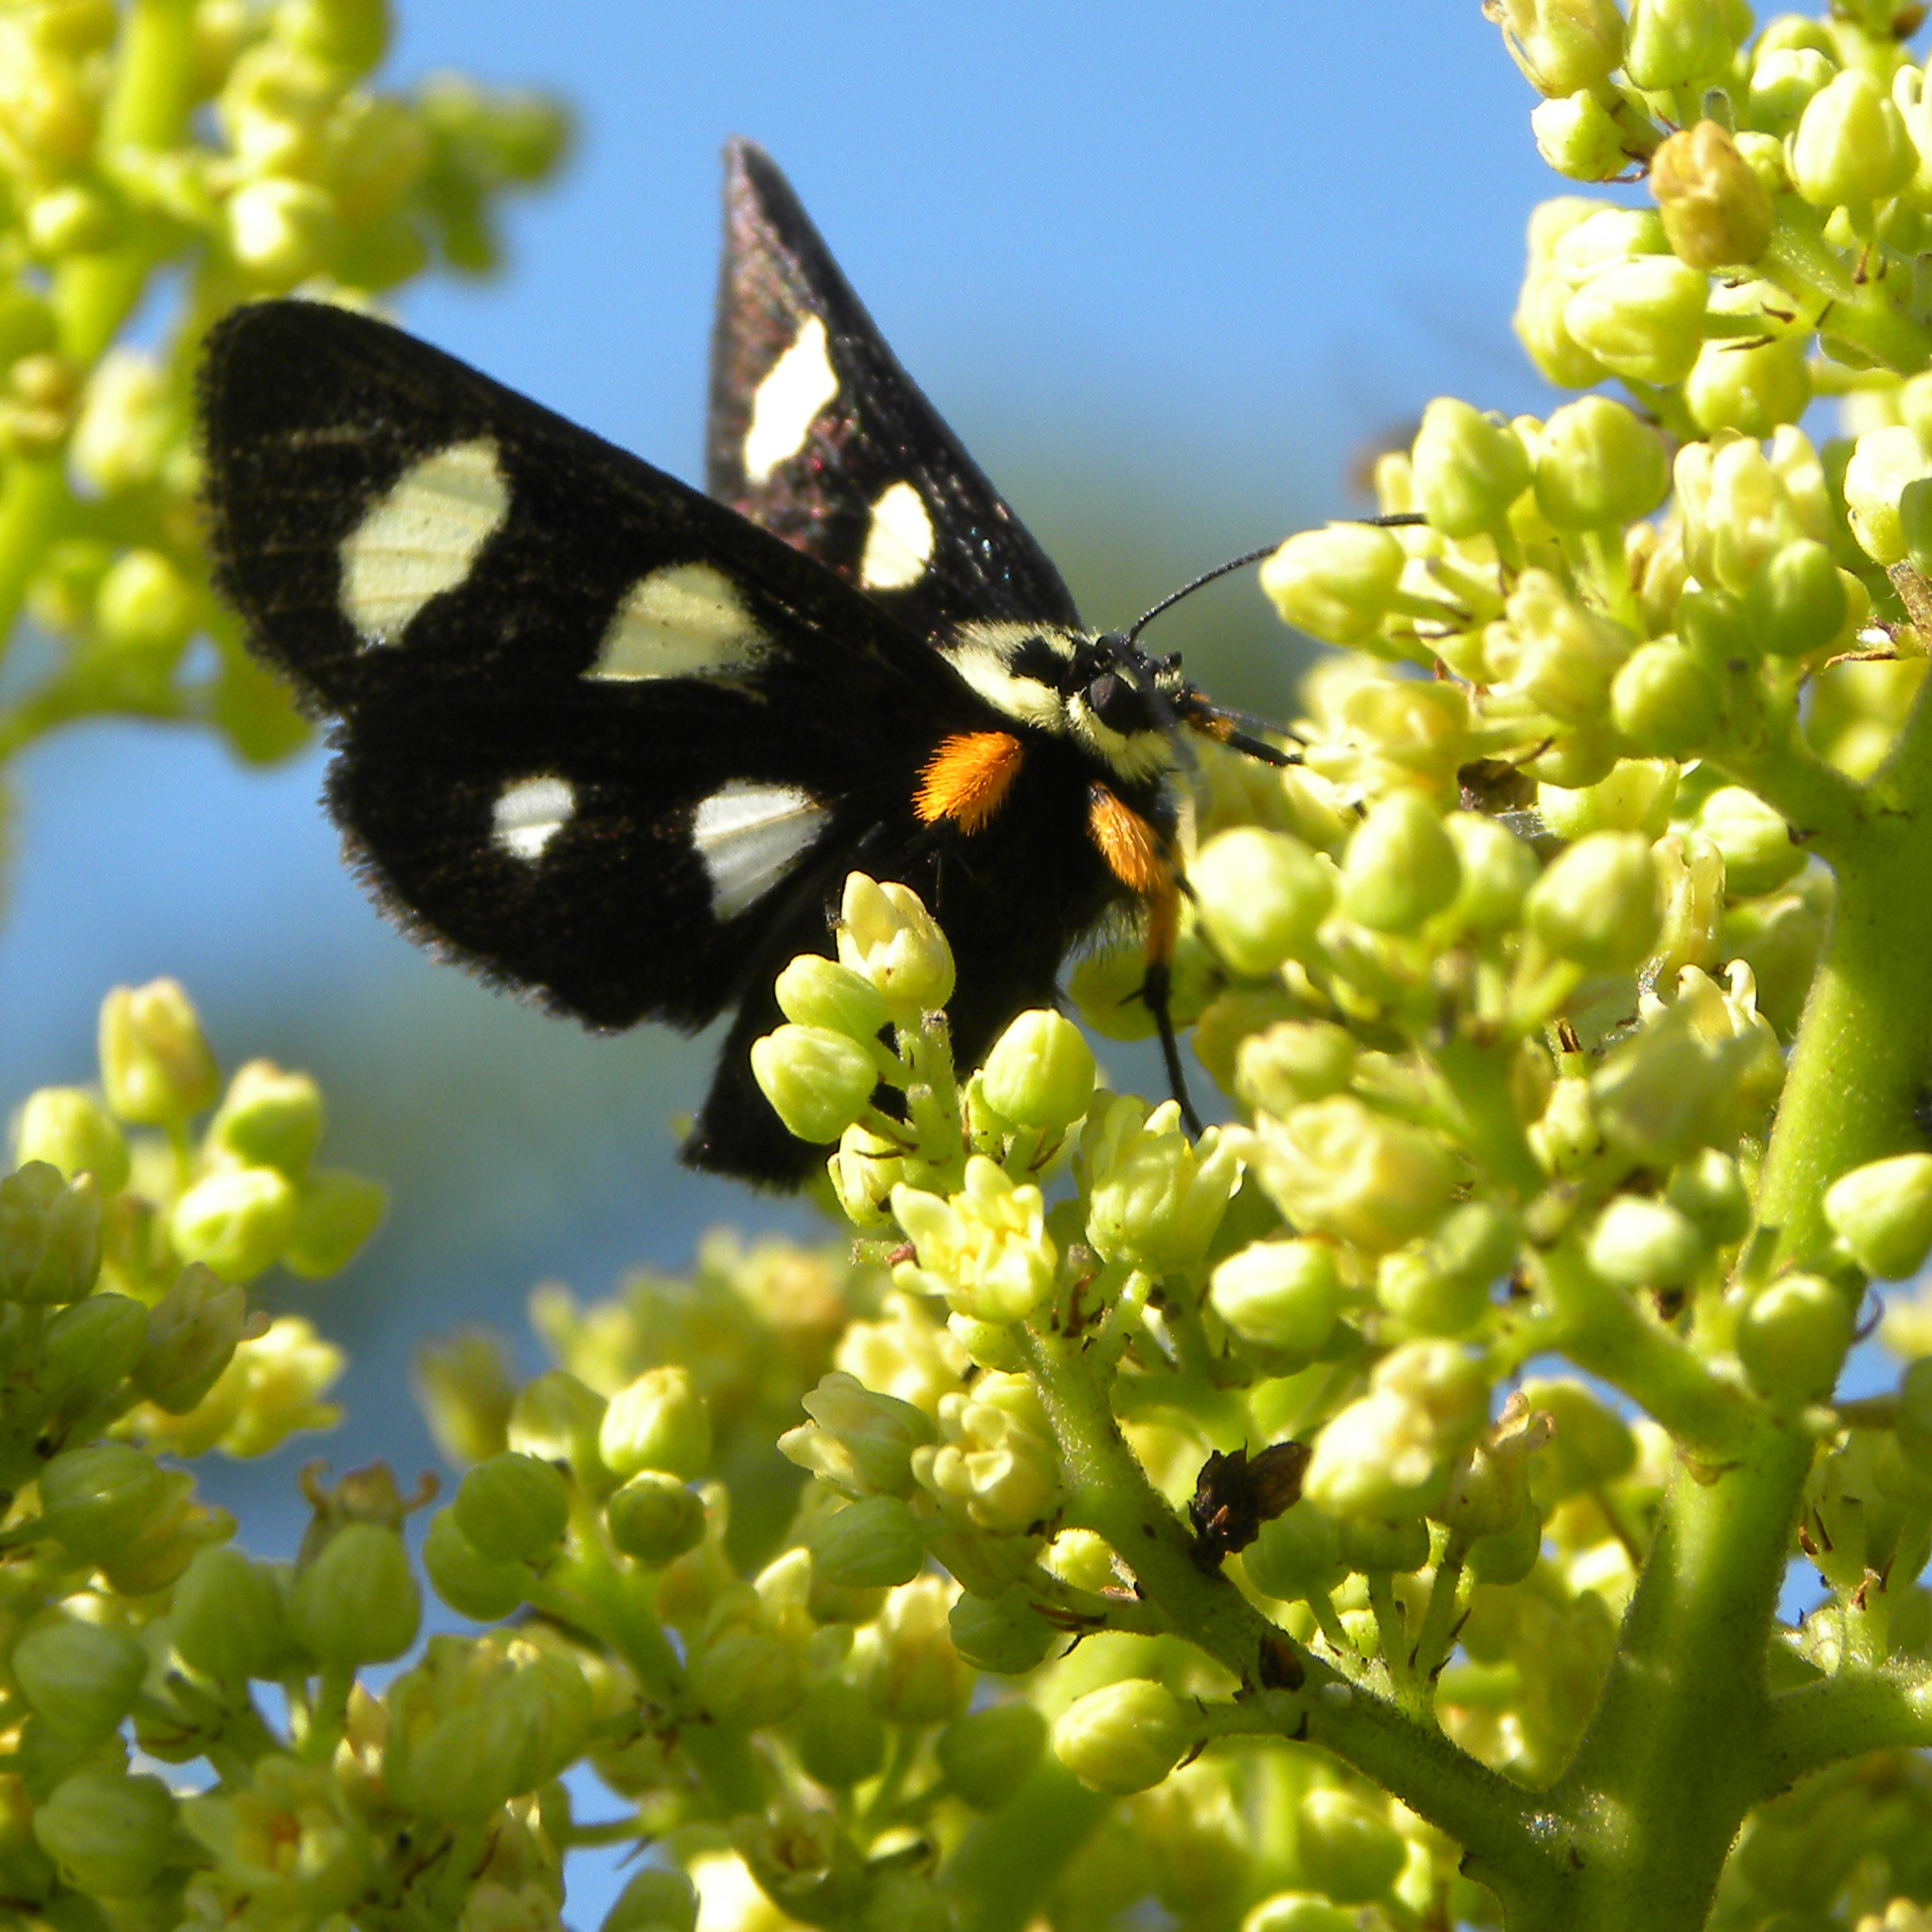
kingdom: Animalia
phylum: Arthropoda
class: Insecta
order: Lepidoptera
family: Noctuidae
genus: Alypia
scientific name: Alypia octomaculata
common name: Eight-spotted forester
